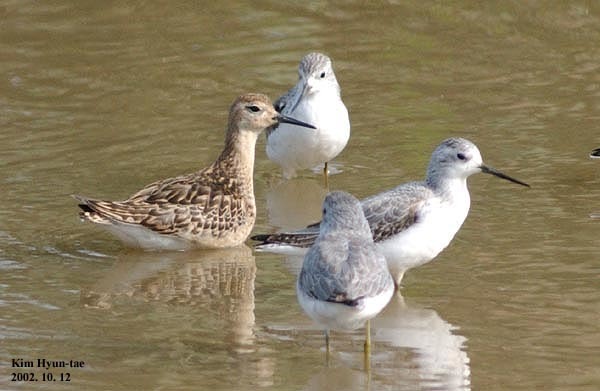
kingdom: Animalia
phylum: Chordata
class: Aves
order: Charadriiformes
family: Scolopacidae
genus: Calidris
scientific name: Calidris pugnax
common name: Ruff
